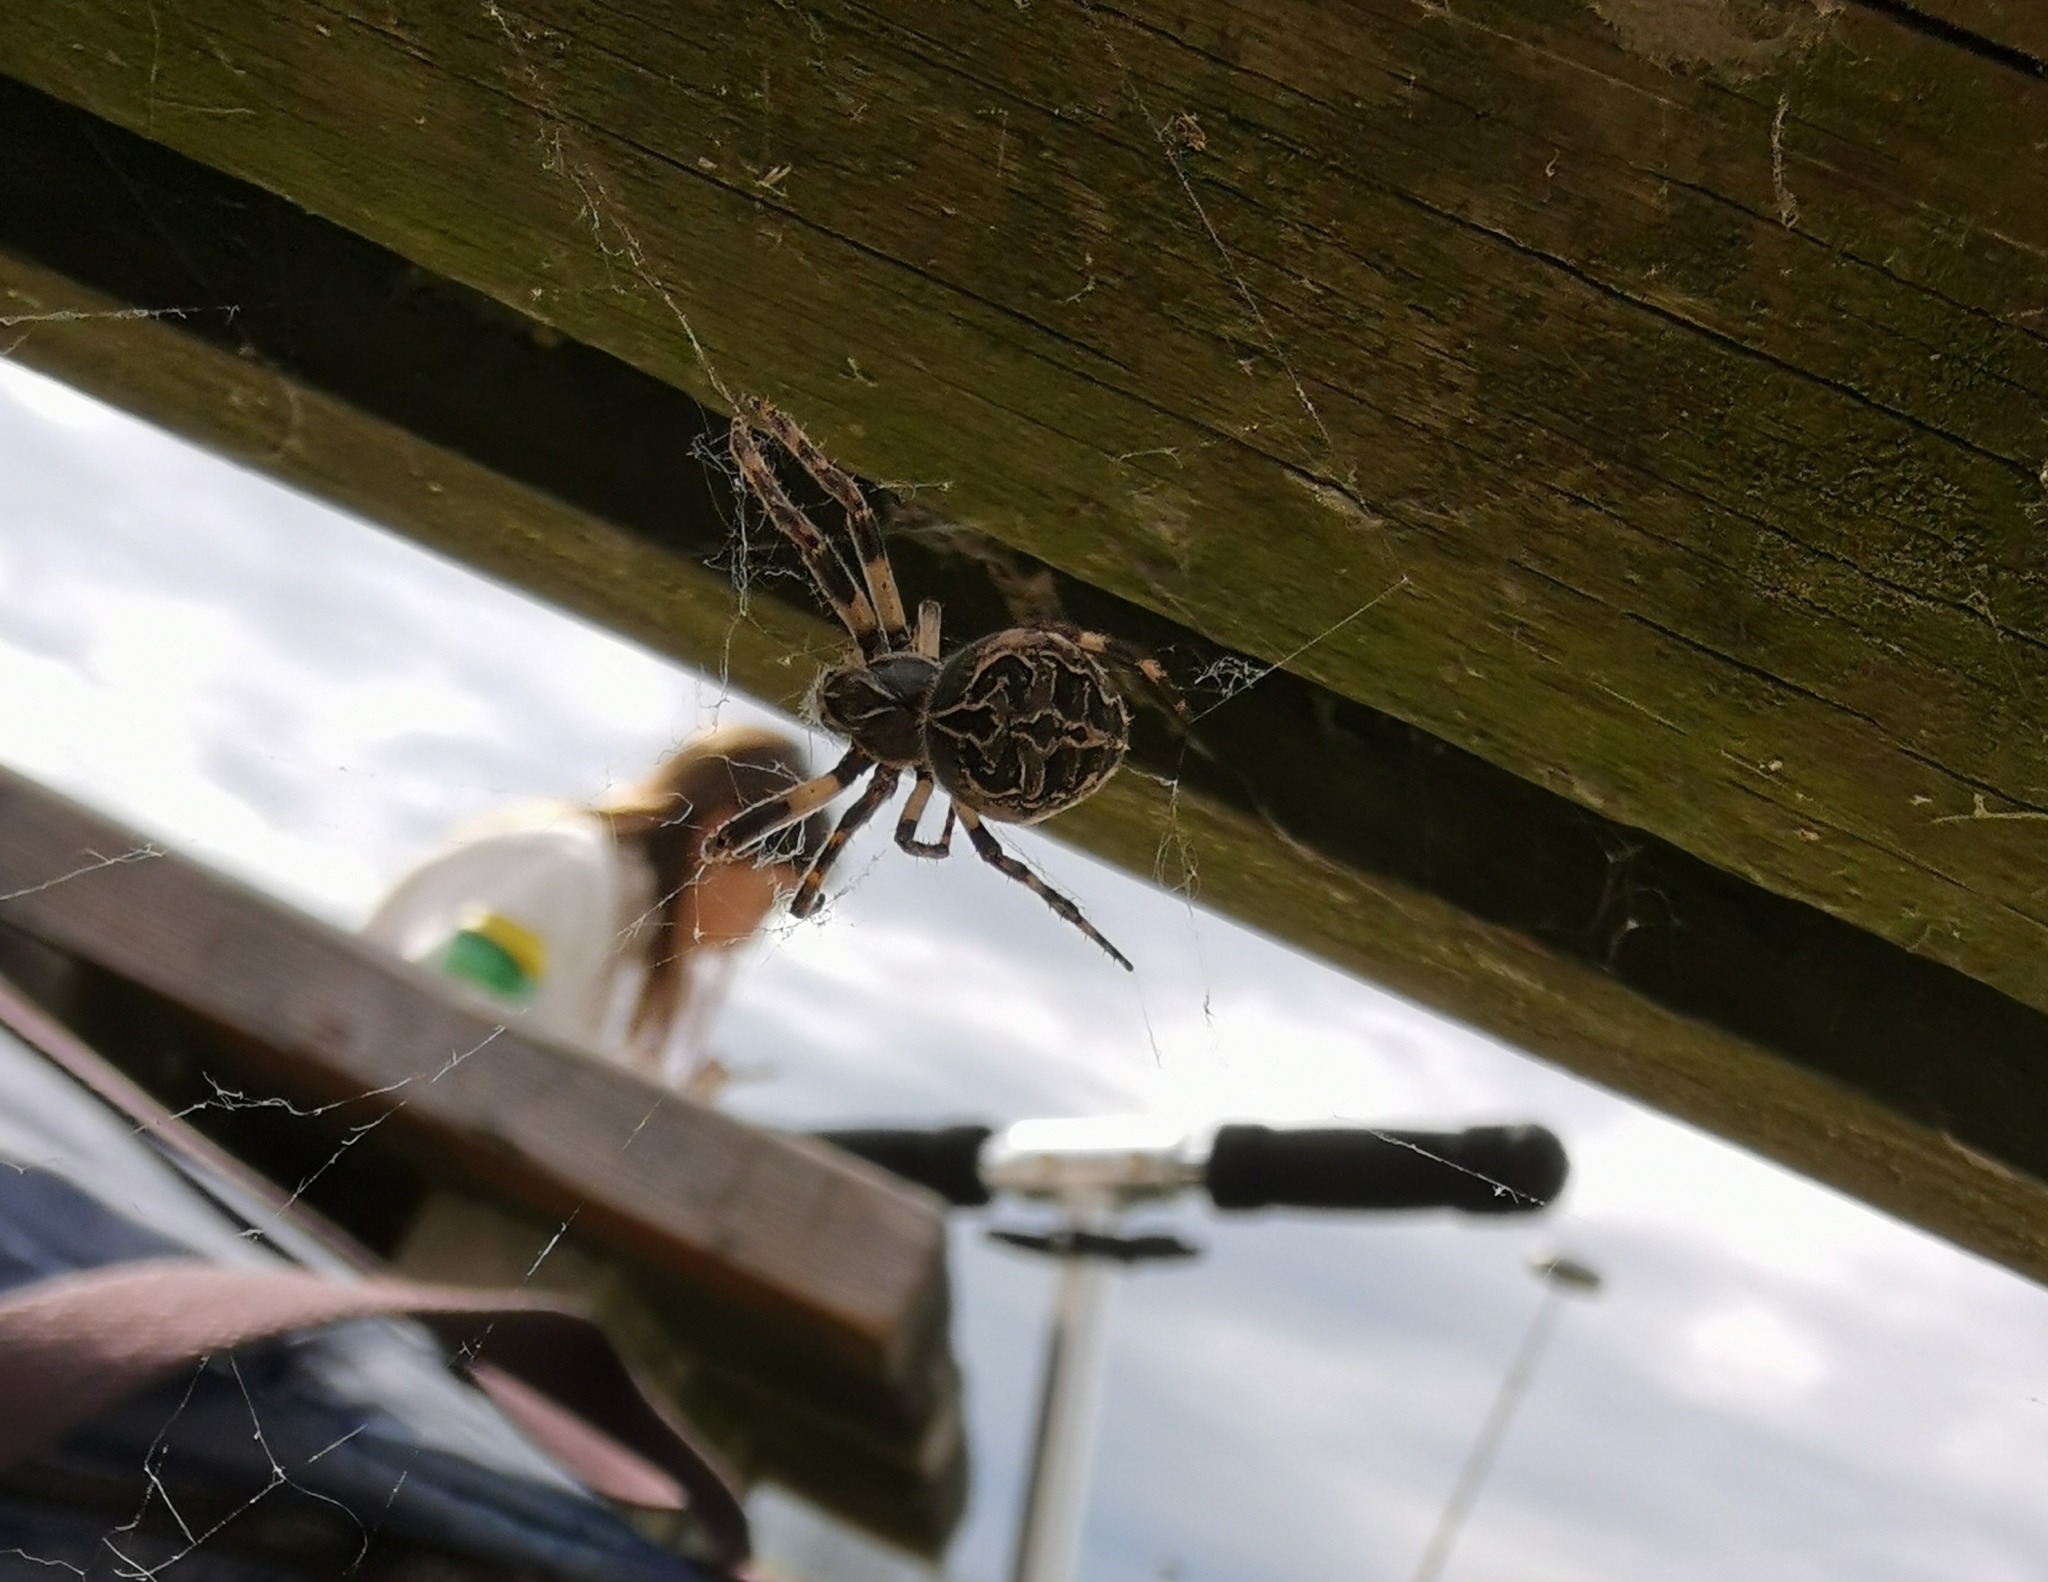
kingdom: Animalia
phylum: Arthropoda
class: Arachnida
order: Araneae
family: Araneidae
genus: Larinioides
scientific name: Larinioides sclopetarius
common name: Bridge orbweaver
